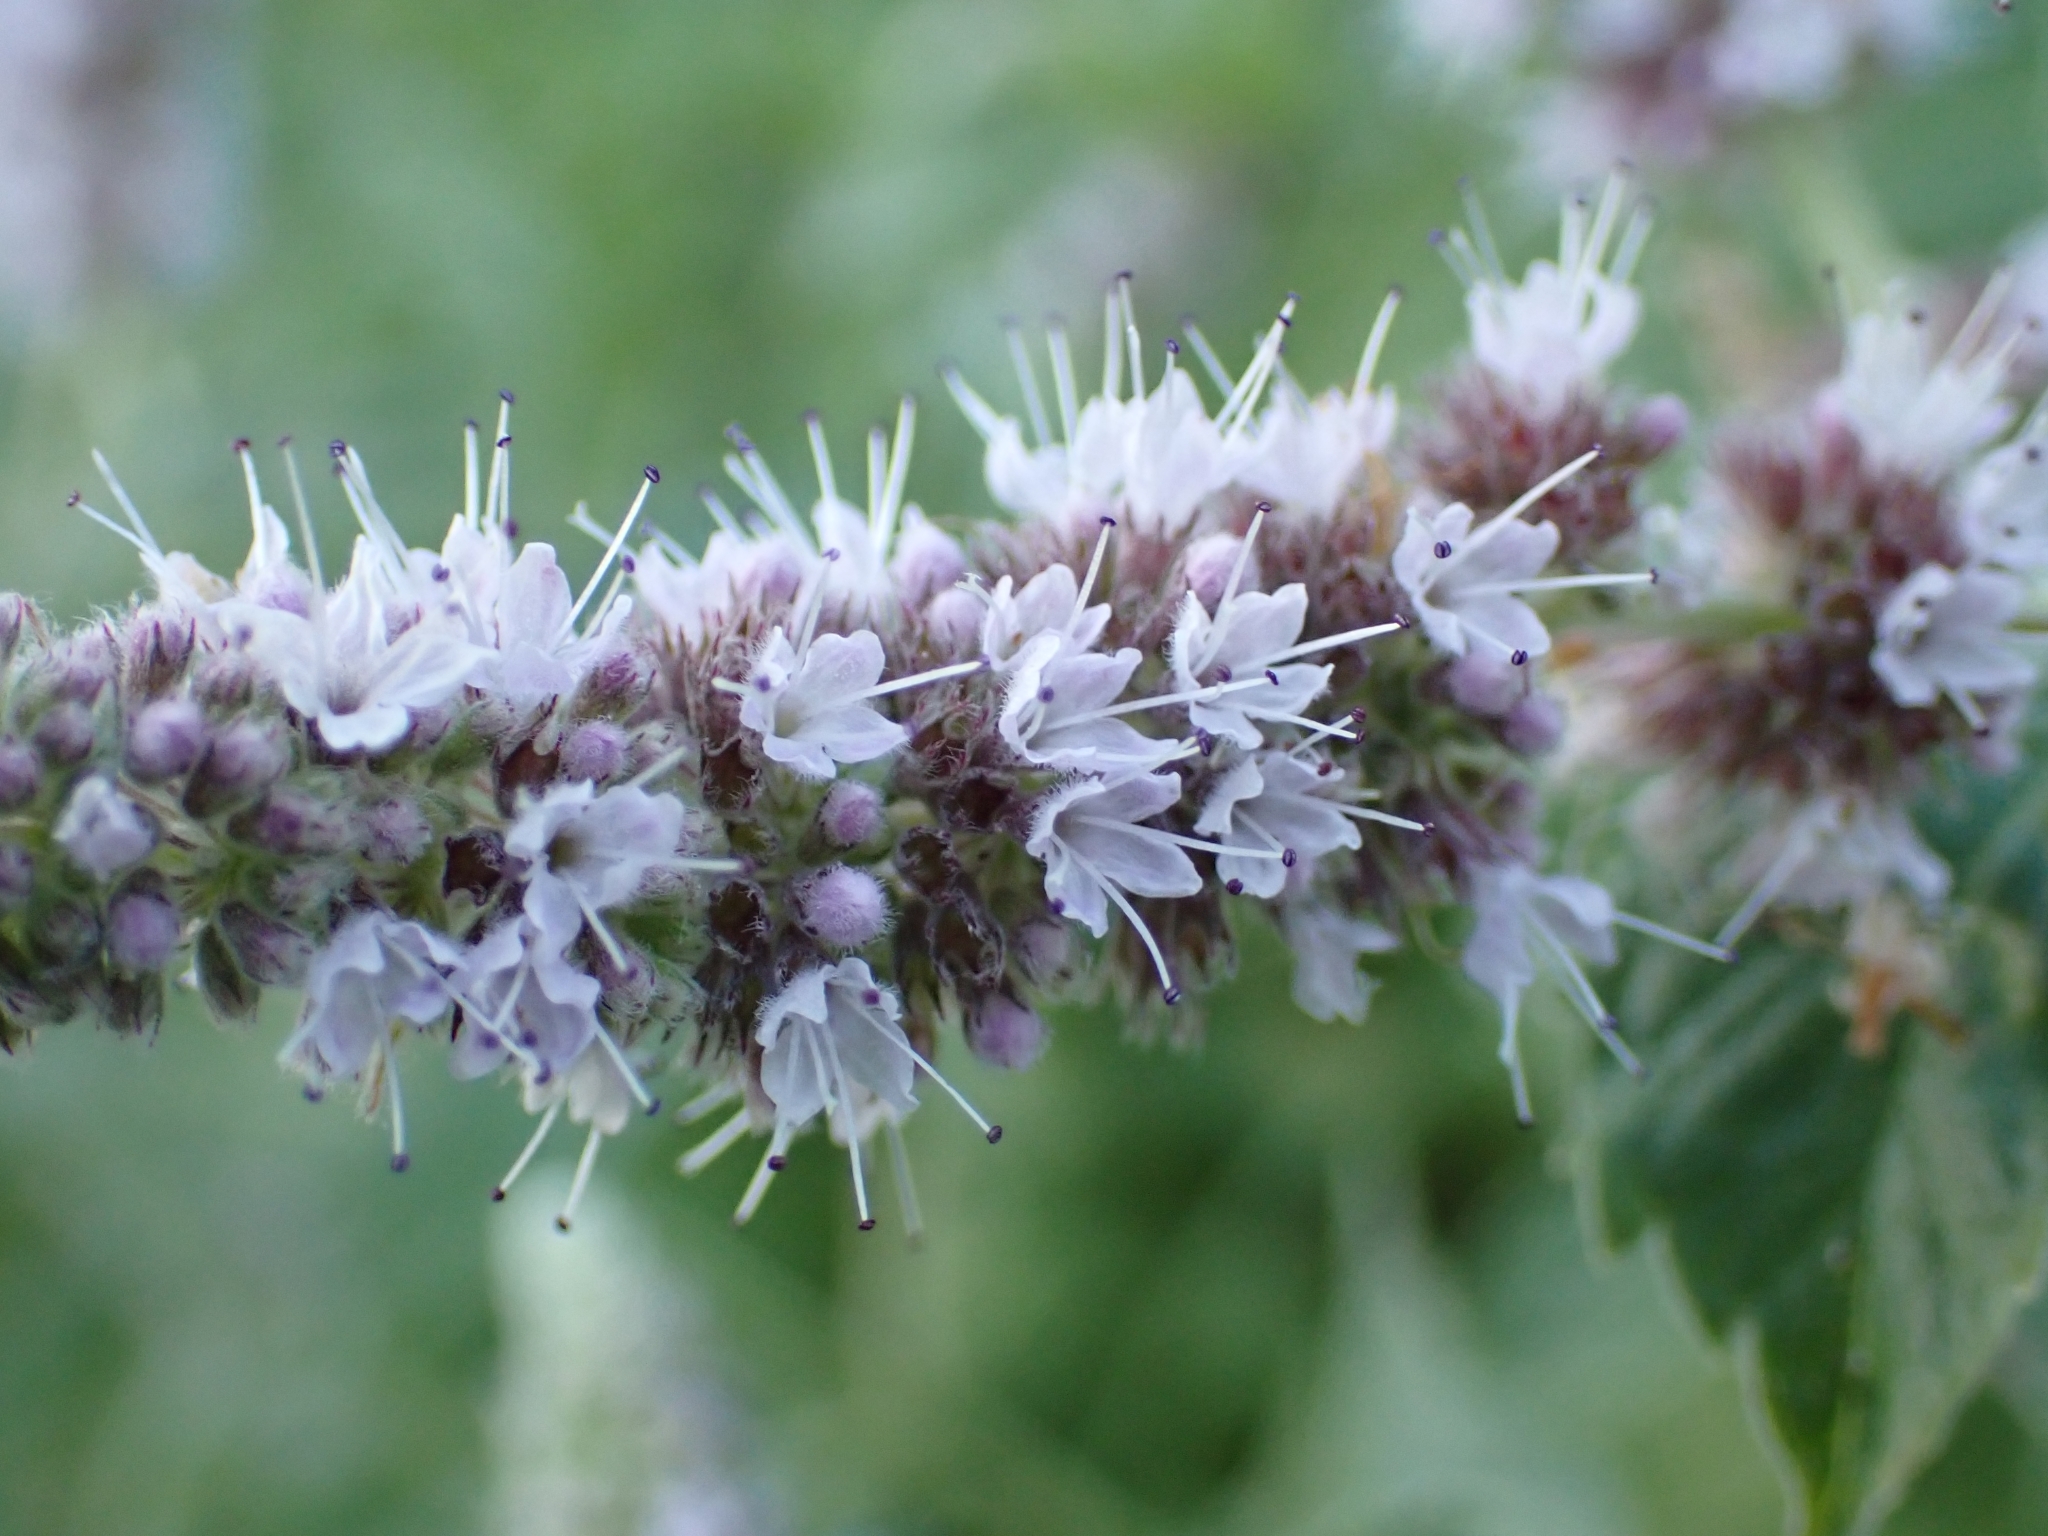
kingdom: Plantae
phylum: Tracheophyta
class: Magnoliopsida
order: Lamiales
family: Lamiaceae
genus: Mentha
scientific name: Mentha longifolia
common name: Horse mint
